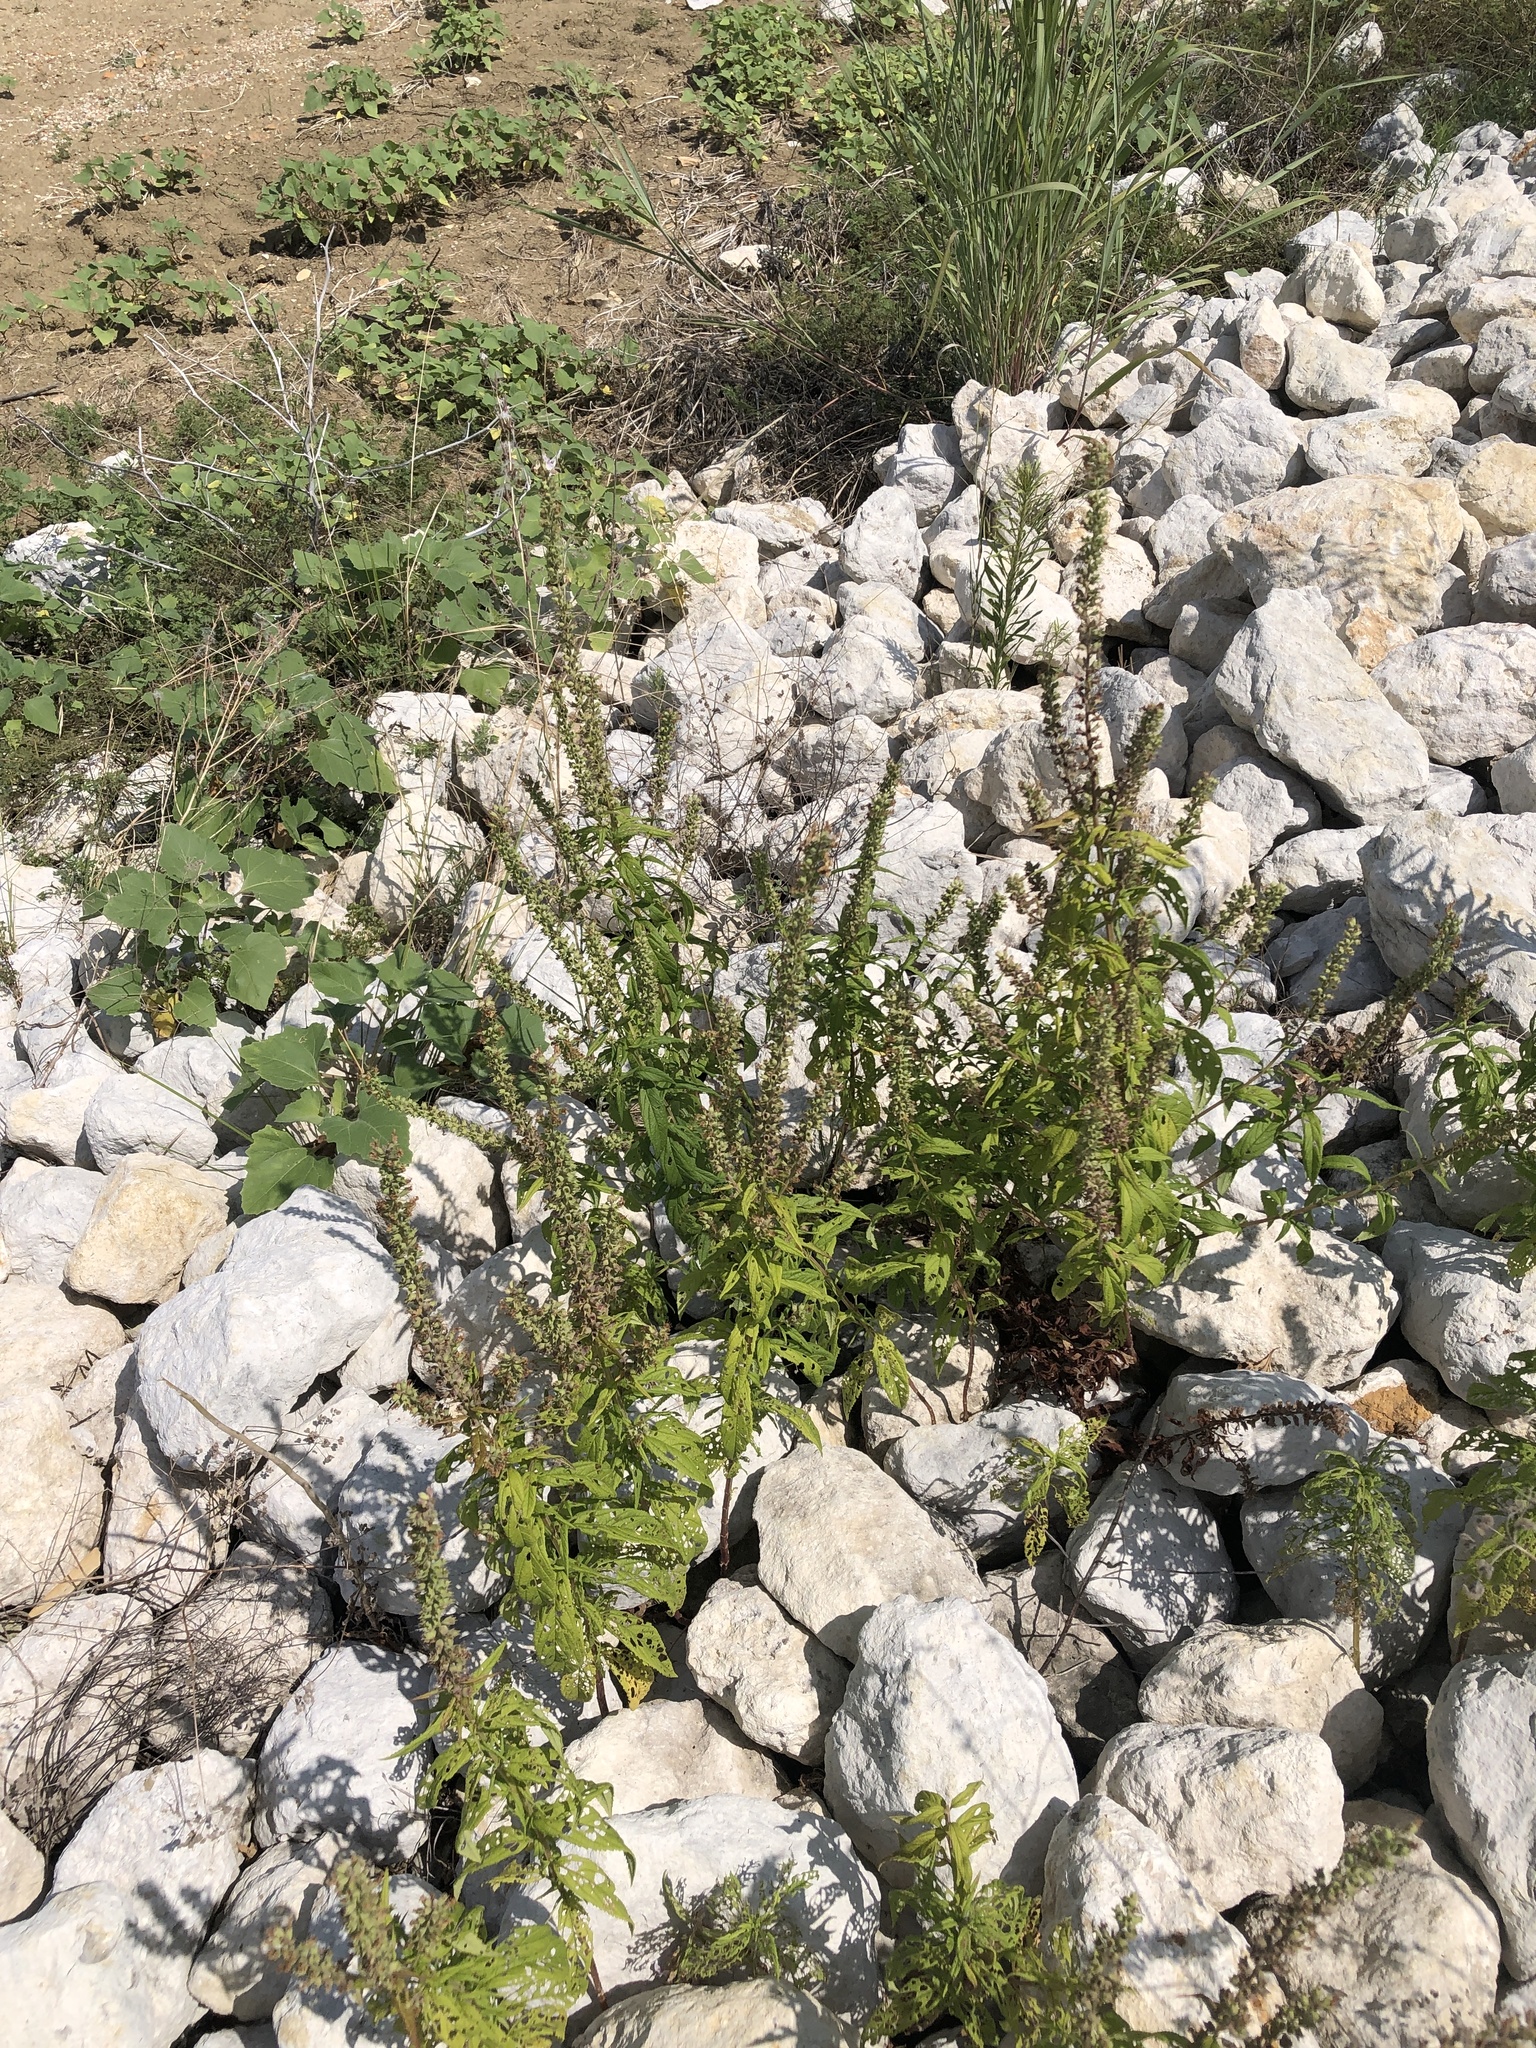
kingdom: Plantae
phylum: Tracheophyta
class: Magnoliopsida
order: Lamiales
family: Lamiaceae
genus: Teucrium
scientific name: Teucrium canadense
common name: American germander
